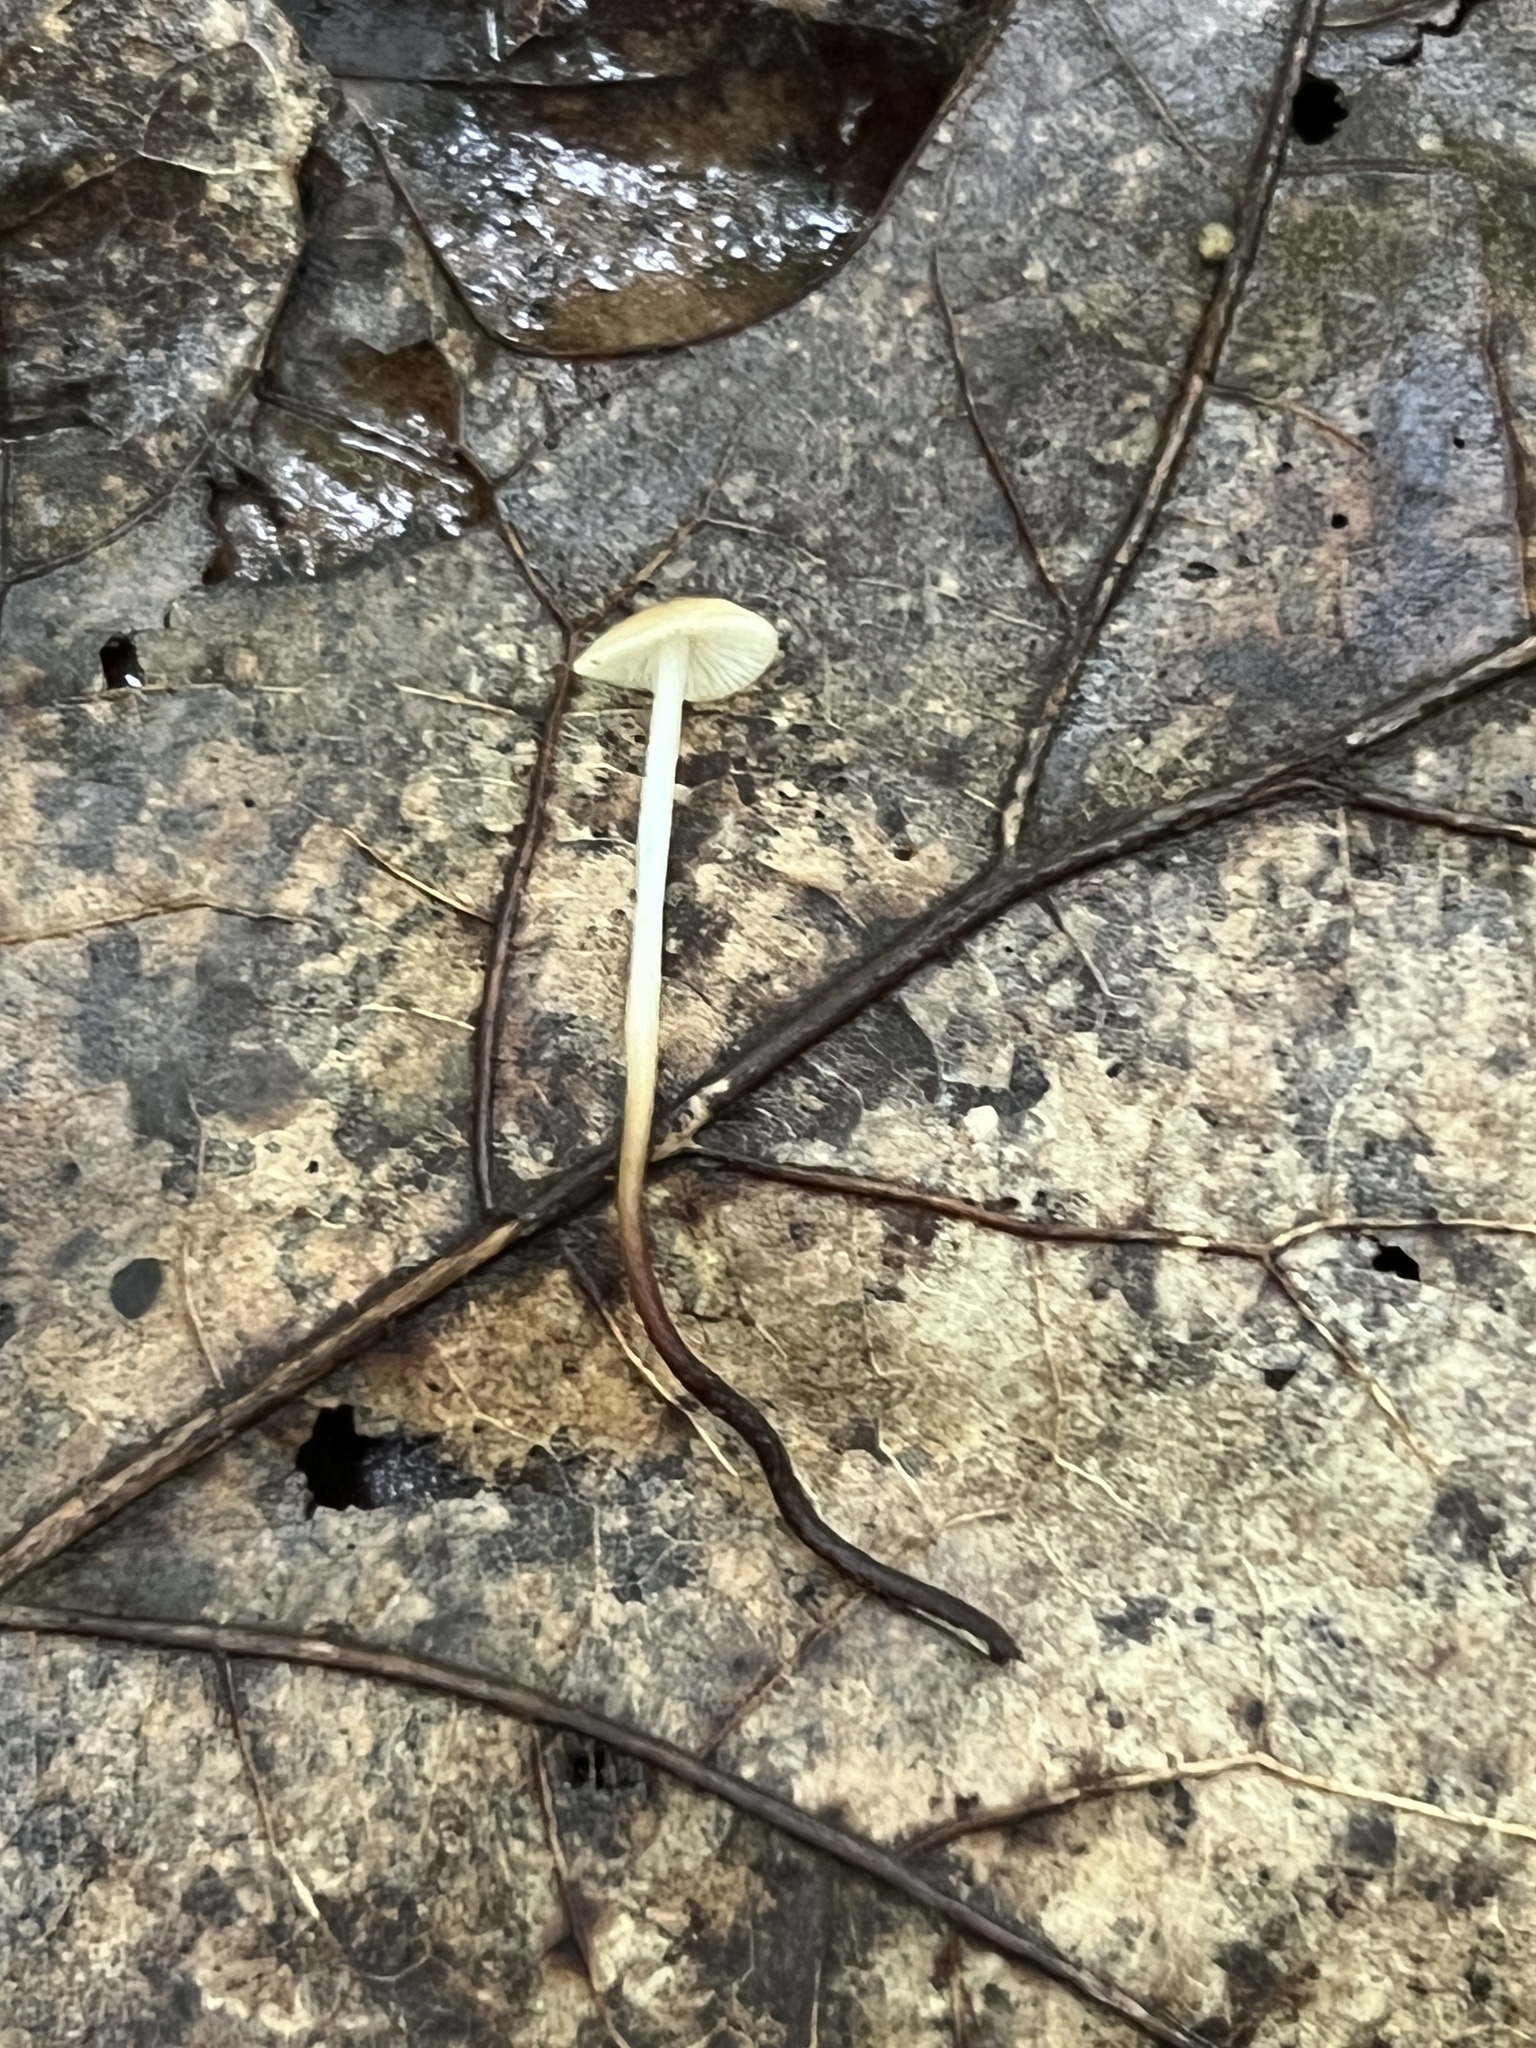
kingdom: Fungi
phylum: Basidiomycota
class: Agaricomycetes
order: Agaricales
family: Physalacriaceae
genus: Rhizomarasmius
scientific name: Rhizomarasmius pyrrhocephalus
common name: Hairy long stem marasmius
